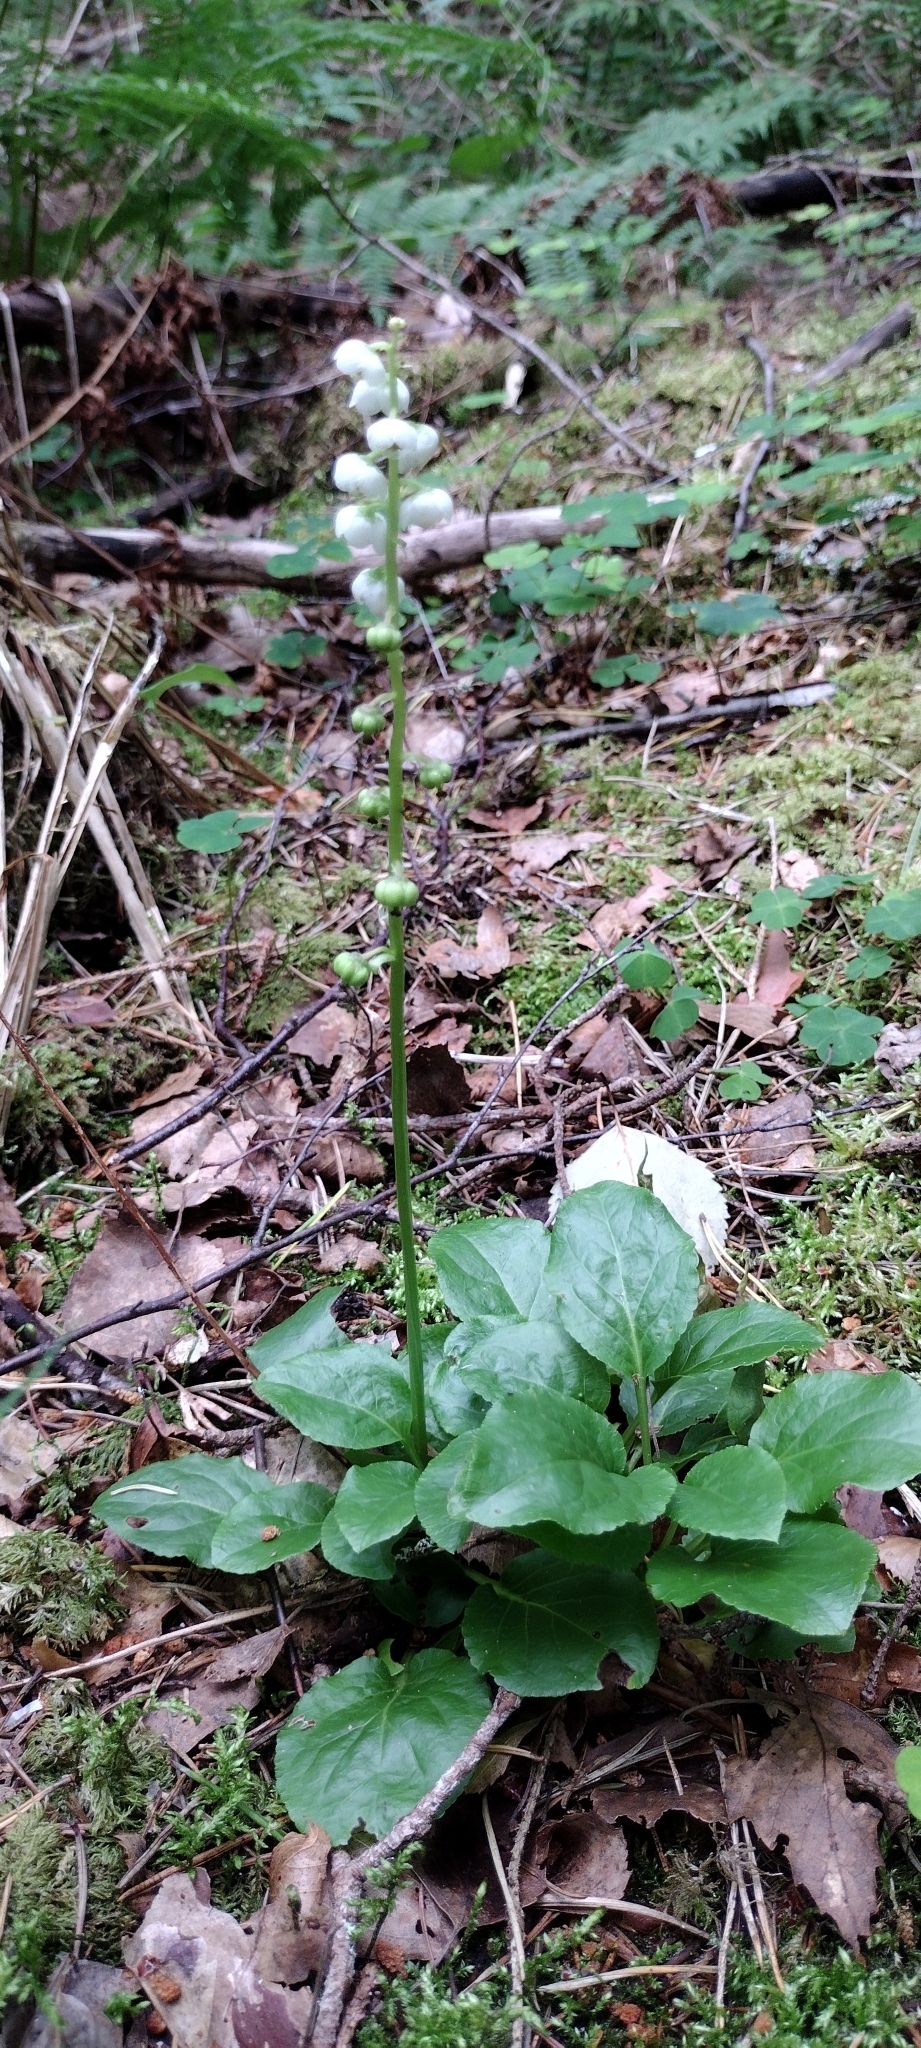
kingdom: Plantae
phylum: Tracheophyta
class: Magnoliopsida
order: Ericales
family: Ericaceae
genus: Pyrola
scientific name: Pyrola minor
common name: Common wintergreen
